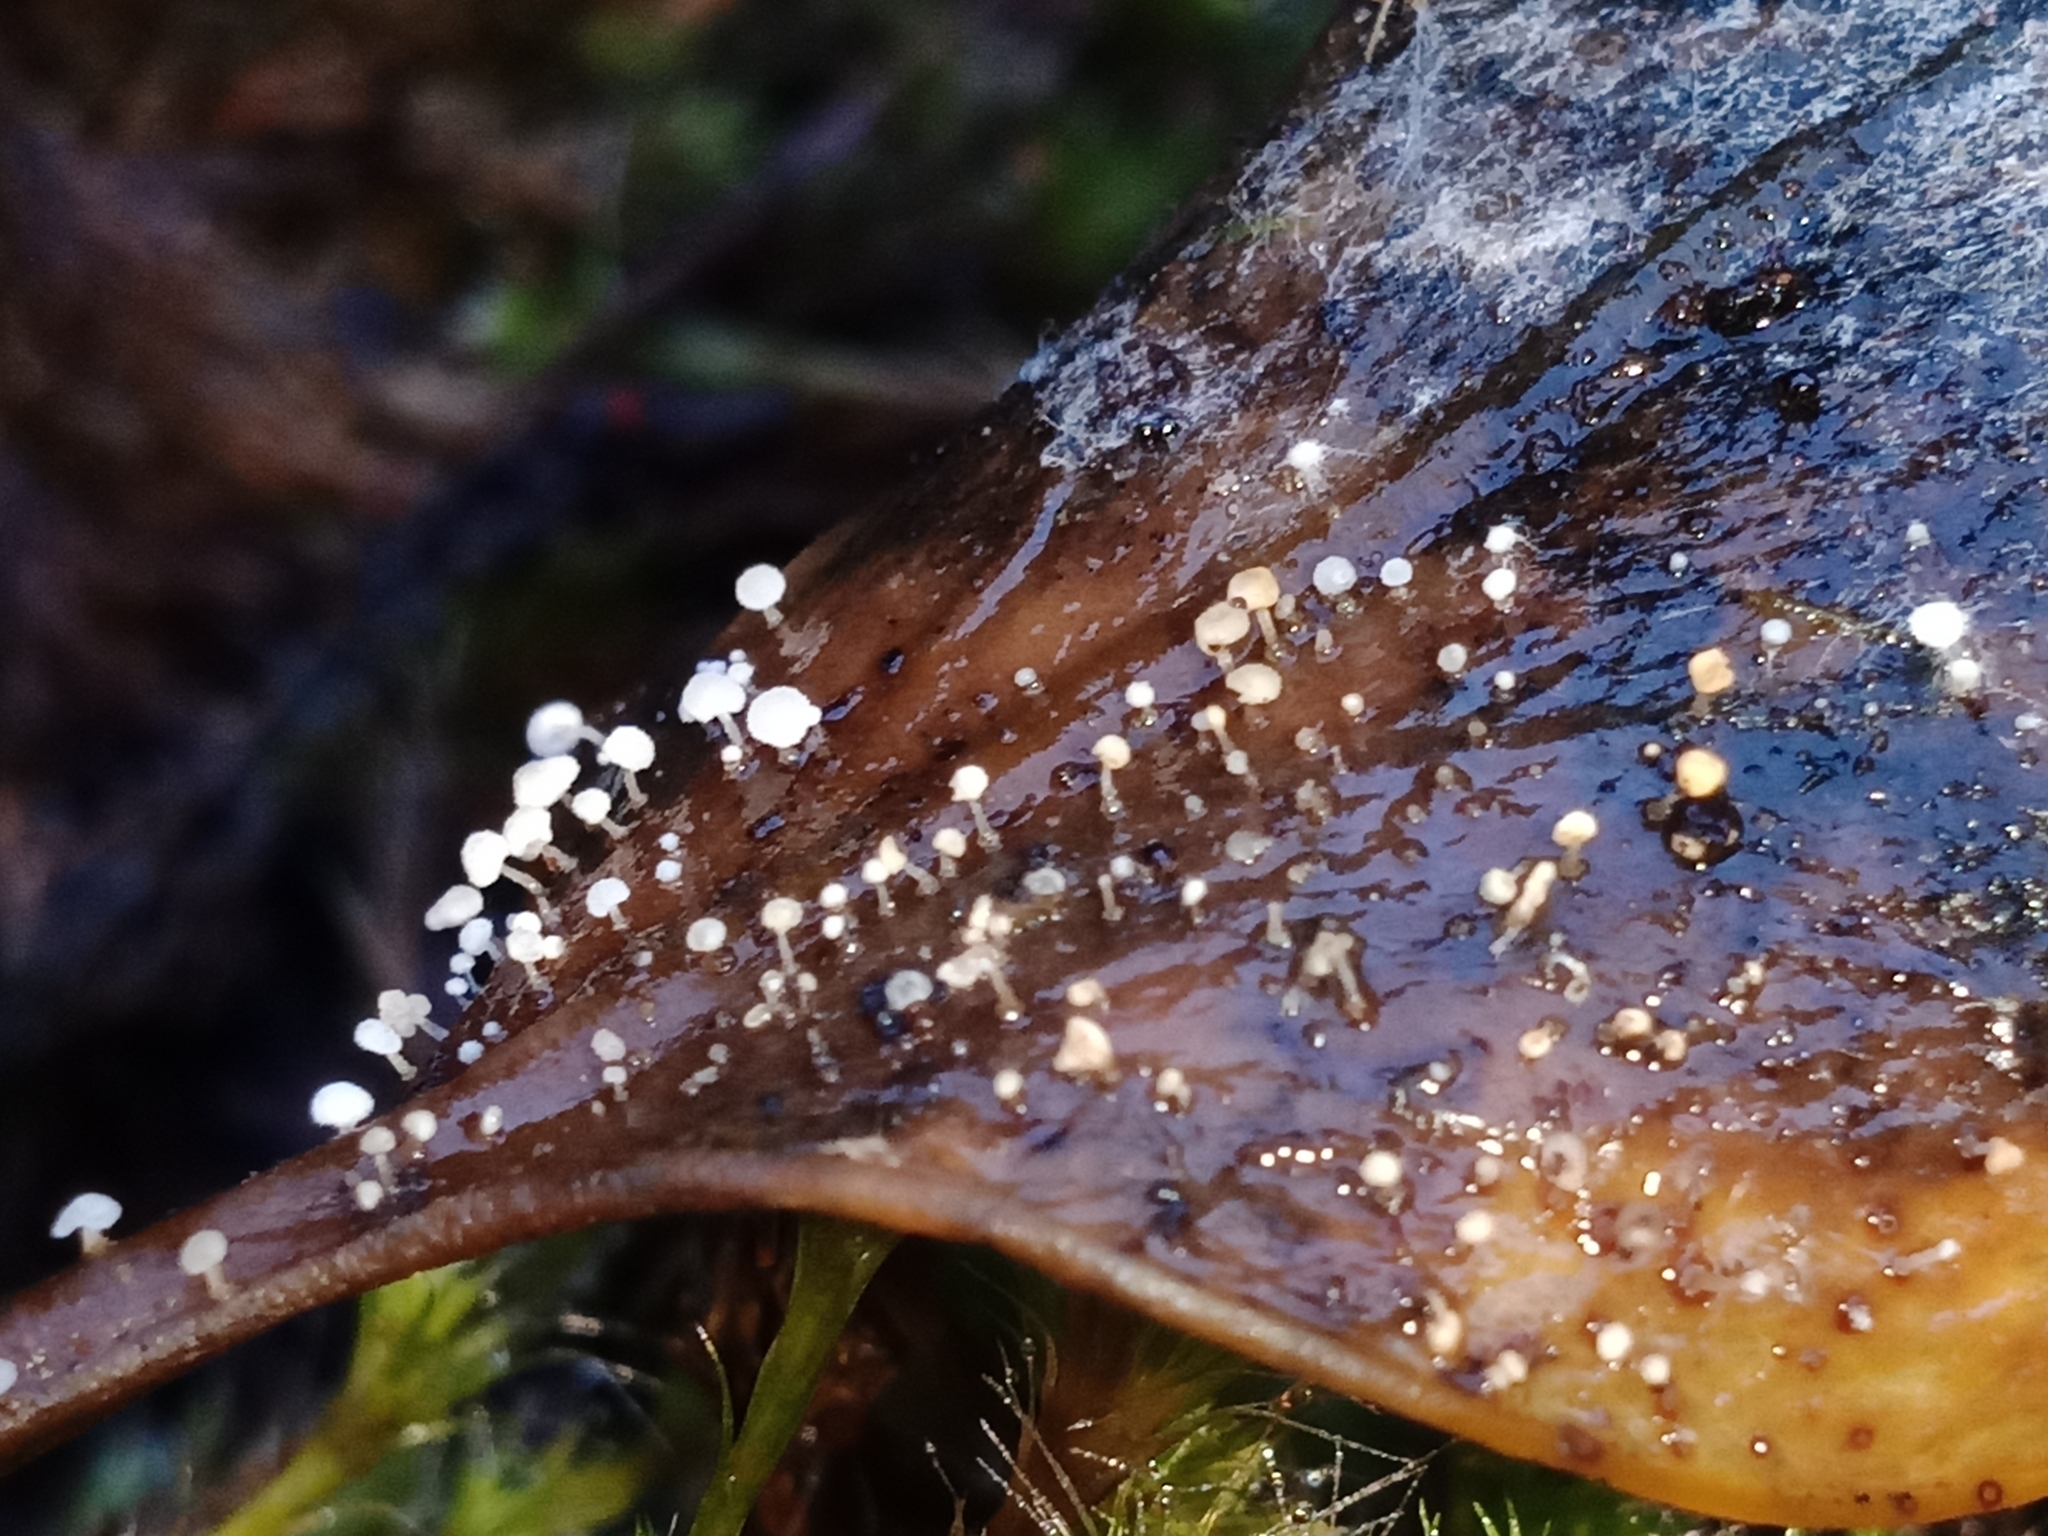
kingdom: Fungi
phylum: Basidiomycota
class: Agaricomycetes
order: Agaricales
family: Physalacriaceae
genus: Physalacria
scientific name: Physalacria stilboidea
